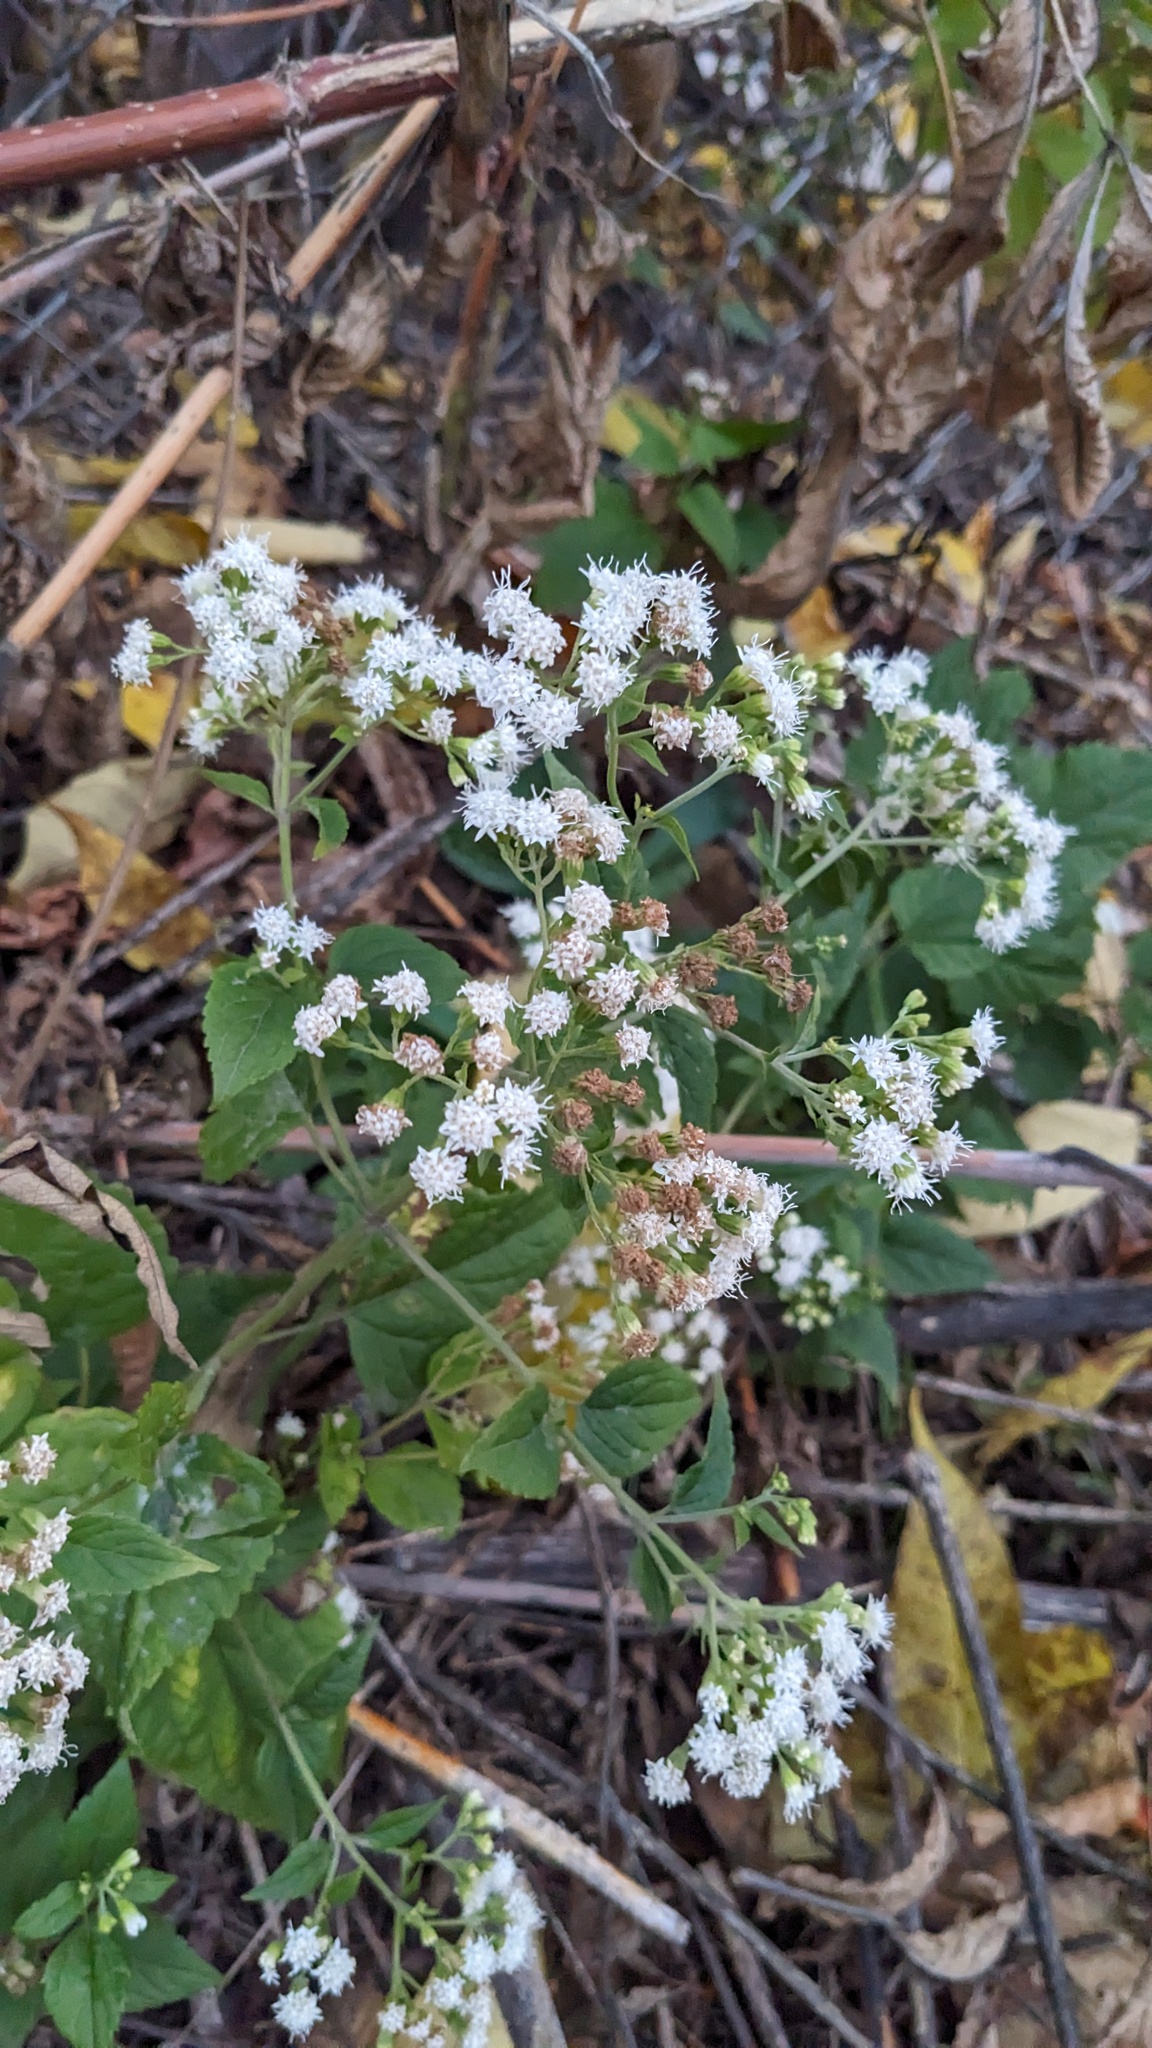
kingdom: Plantae
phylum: Tracheophyta
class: Magnoliopsida
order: Asterales
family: Asteraceae
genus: Ageratina
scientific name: Ageratina altissima
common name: White snakeroot
